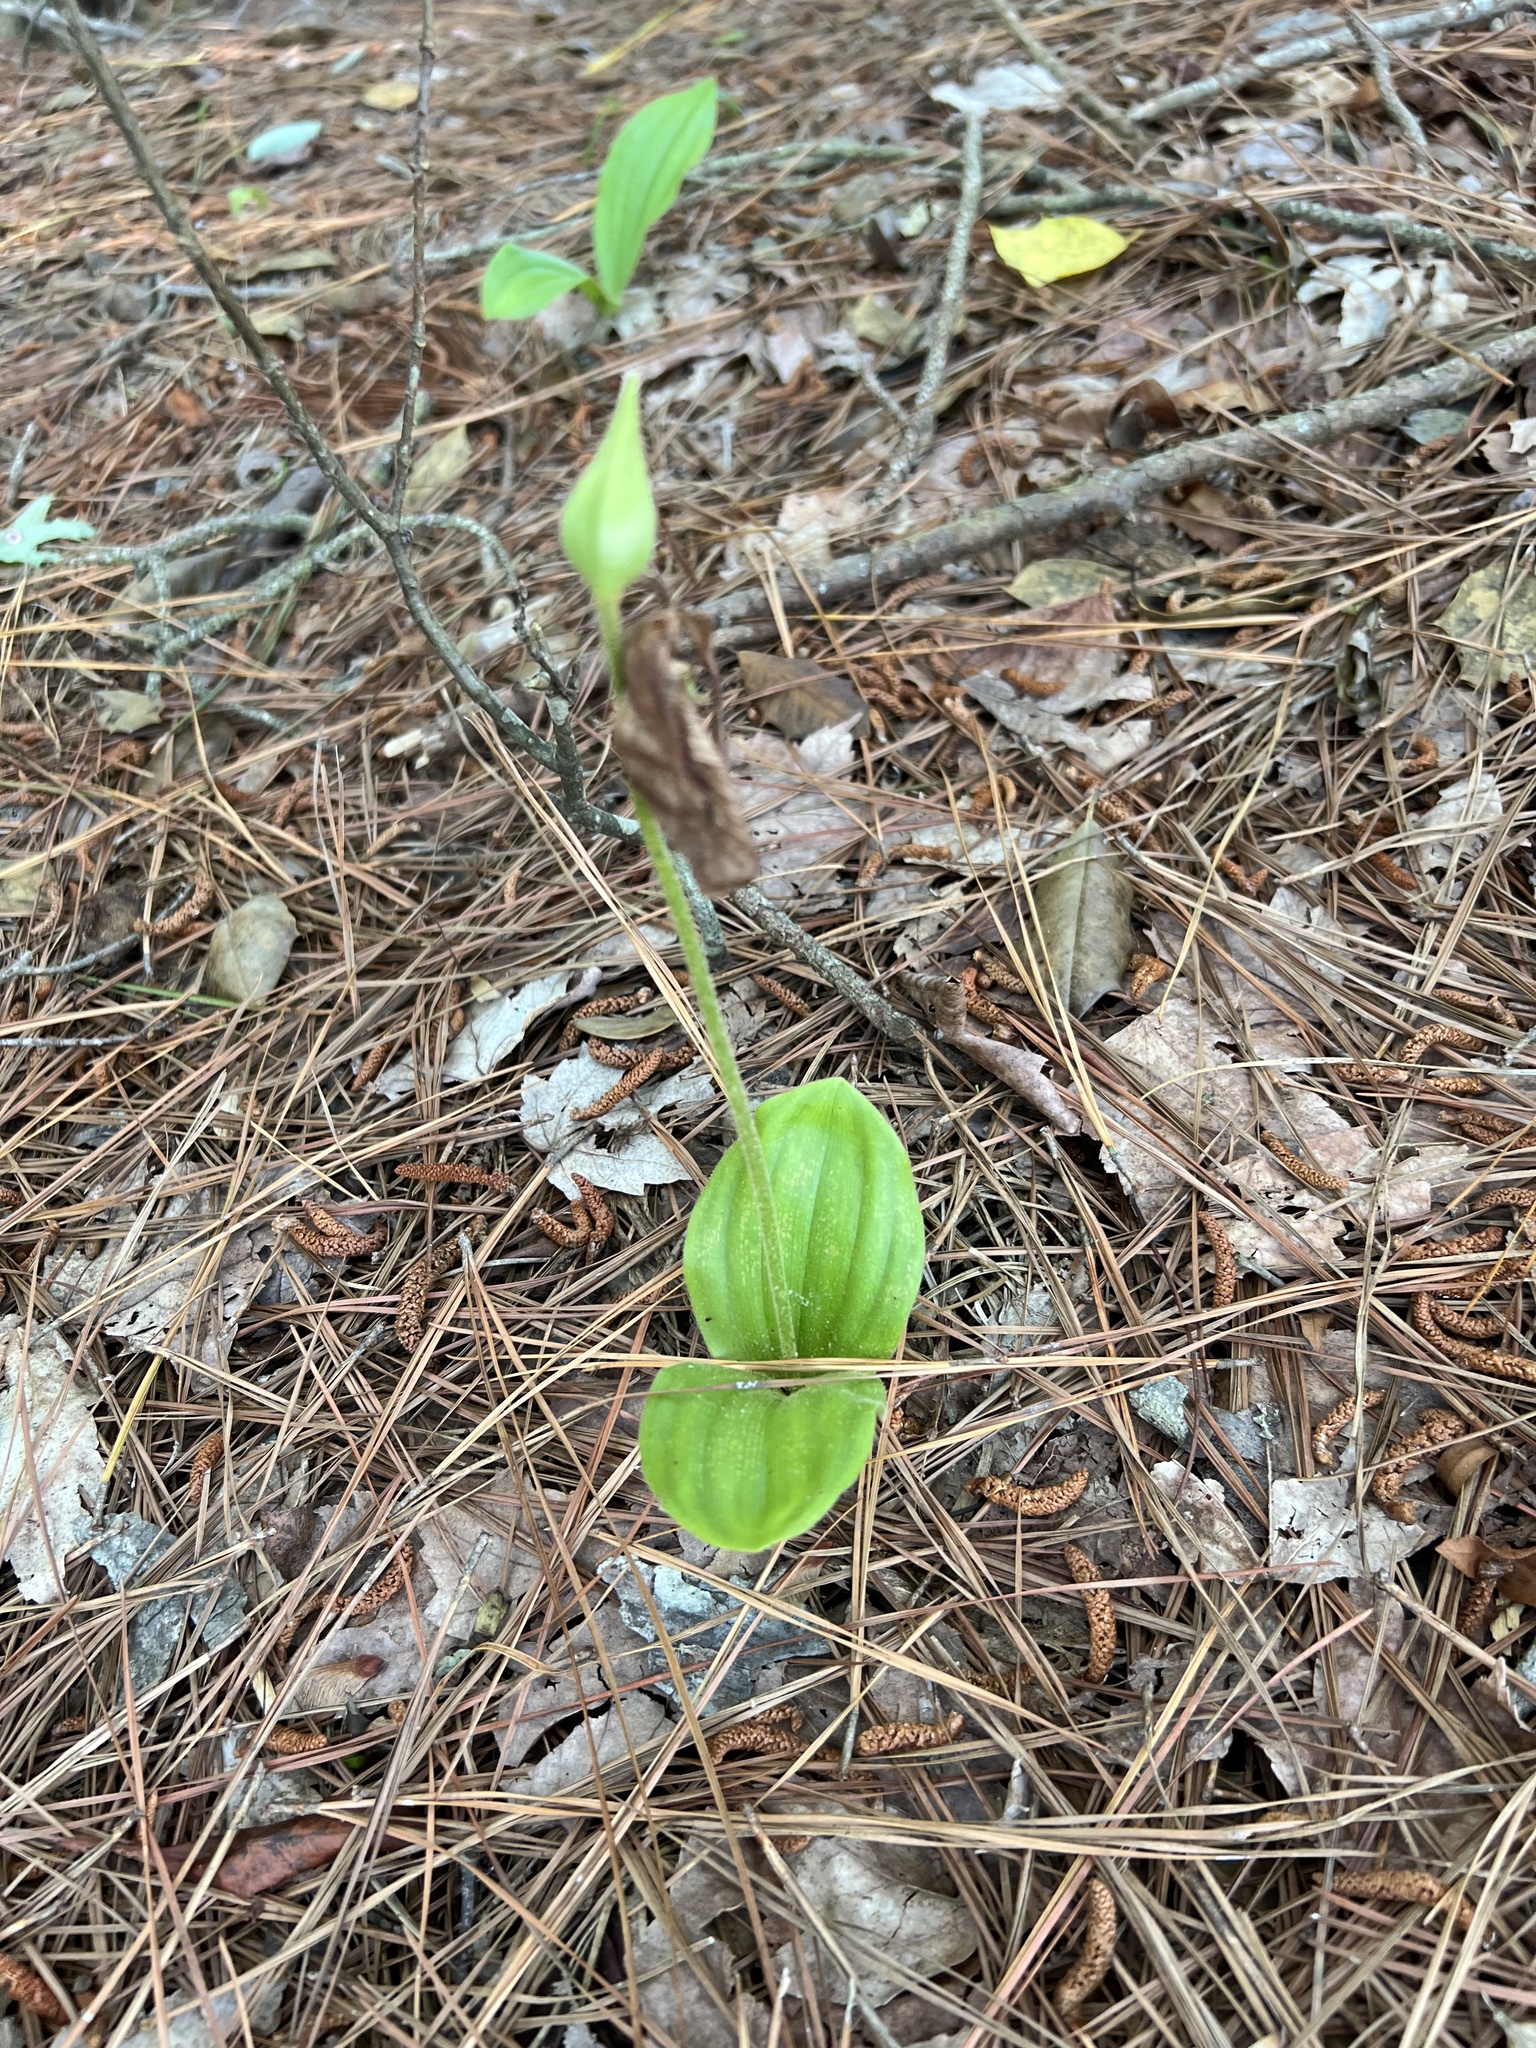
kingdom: Plantae
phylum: Tracheophyta
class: Liliopsida
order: Asparagales
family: Orchidaceae
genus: Cypripedium
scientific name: Cypripedium acaule
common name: Pink lady's-slipper
